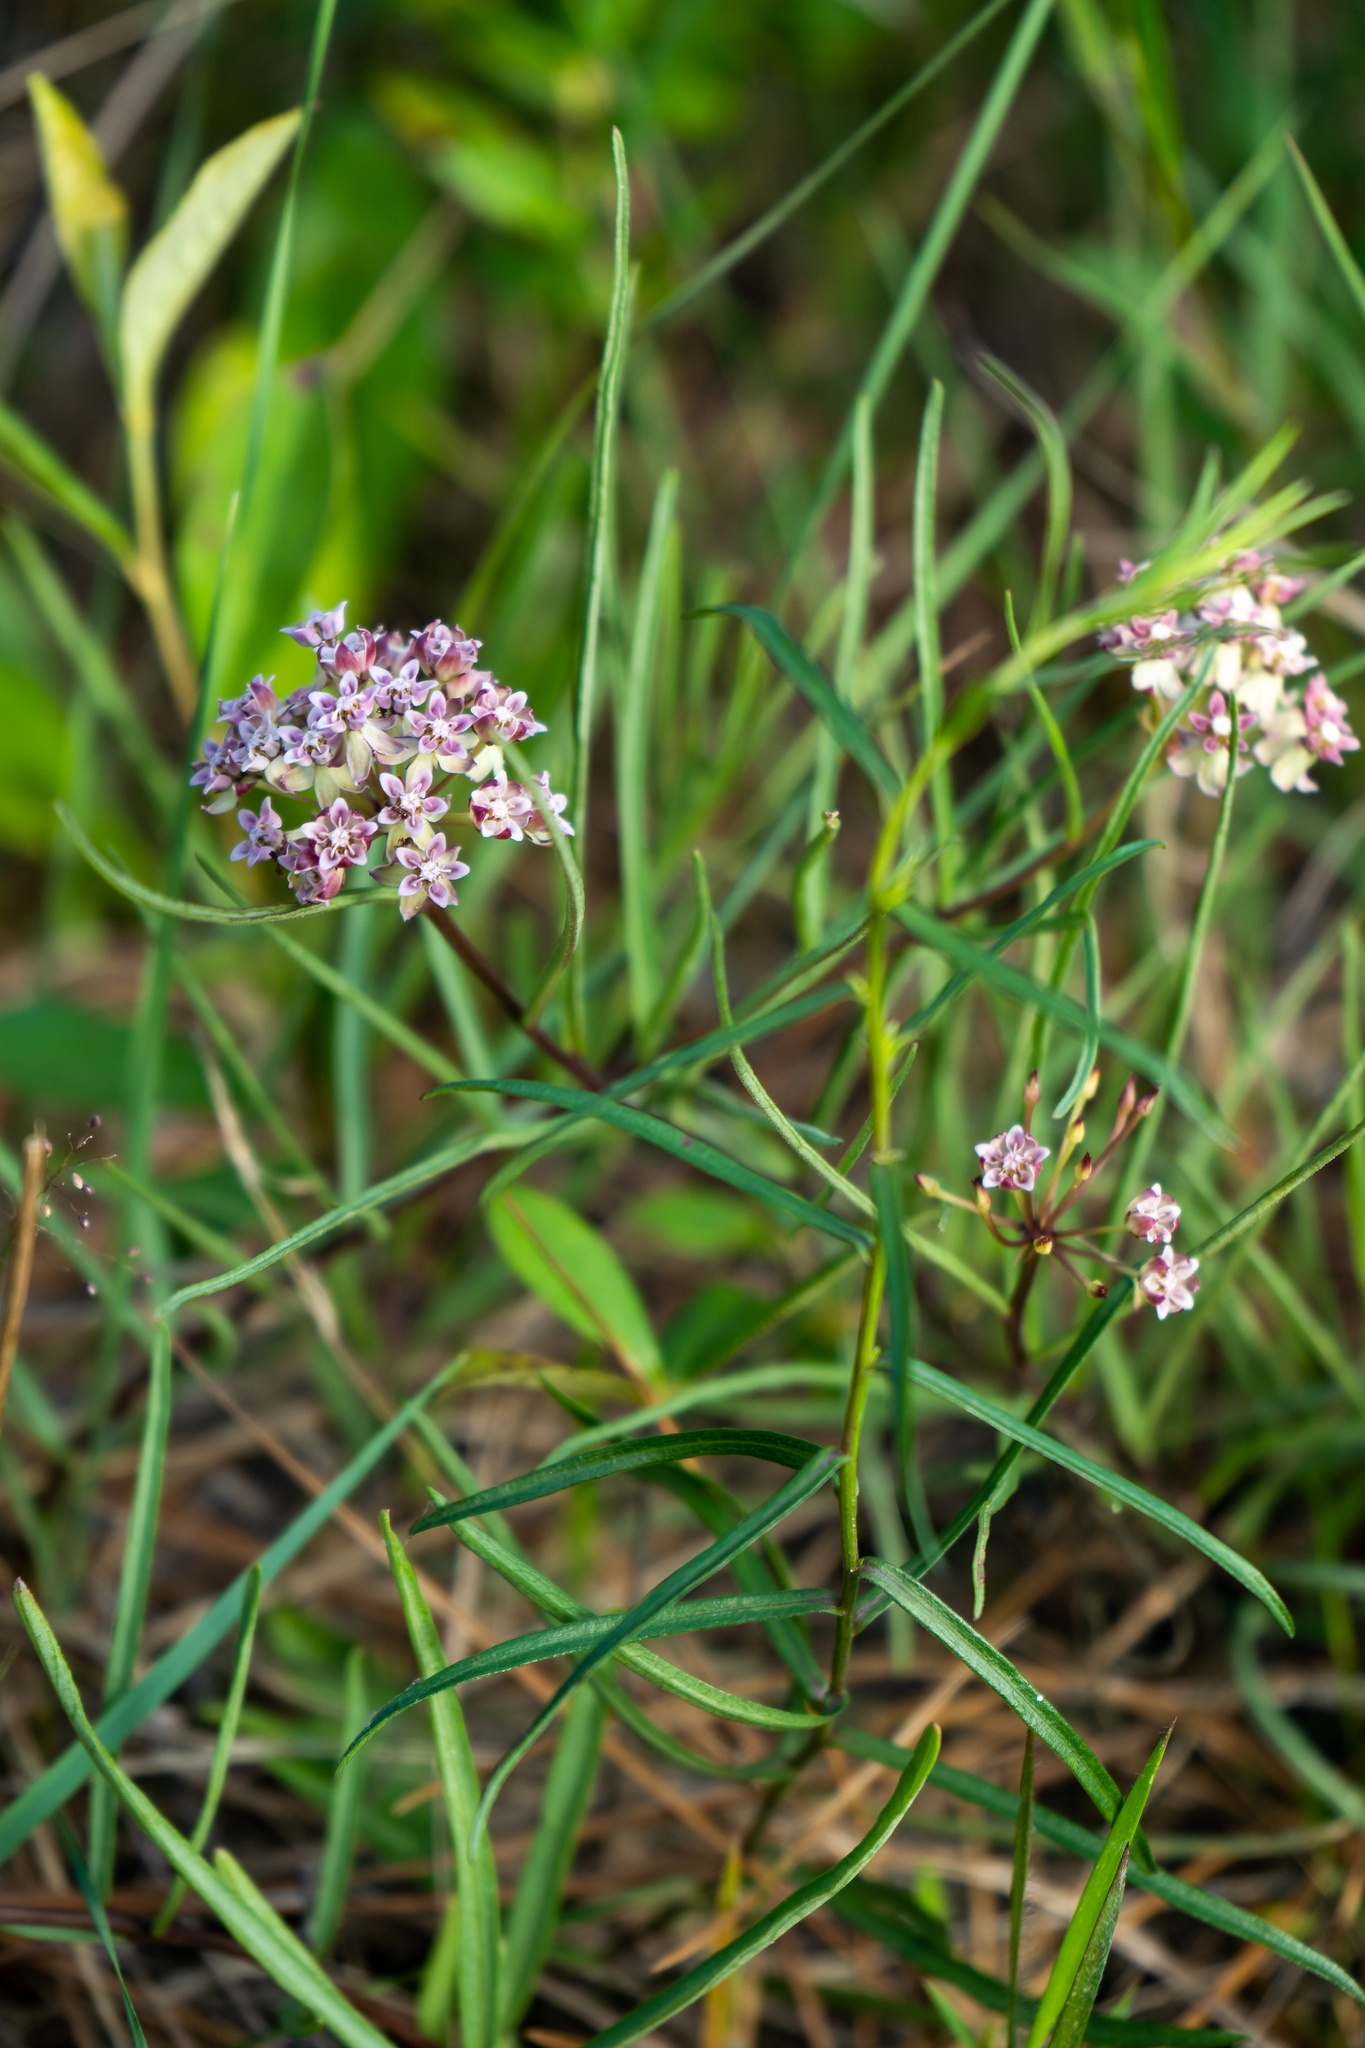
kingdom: Plantae
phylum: Tracheophyta
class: Magnoliopsida
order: Gentianales
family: Apocynaceae
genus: Asclepias
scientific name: Asclepias michauxii
